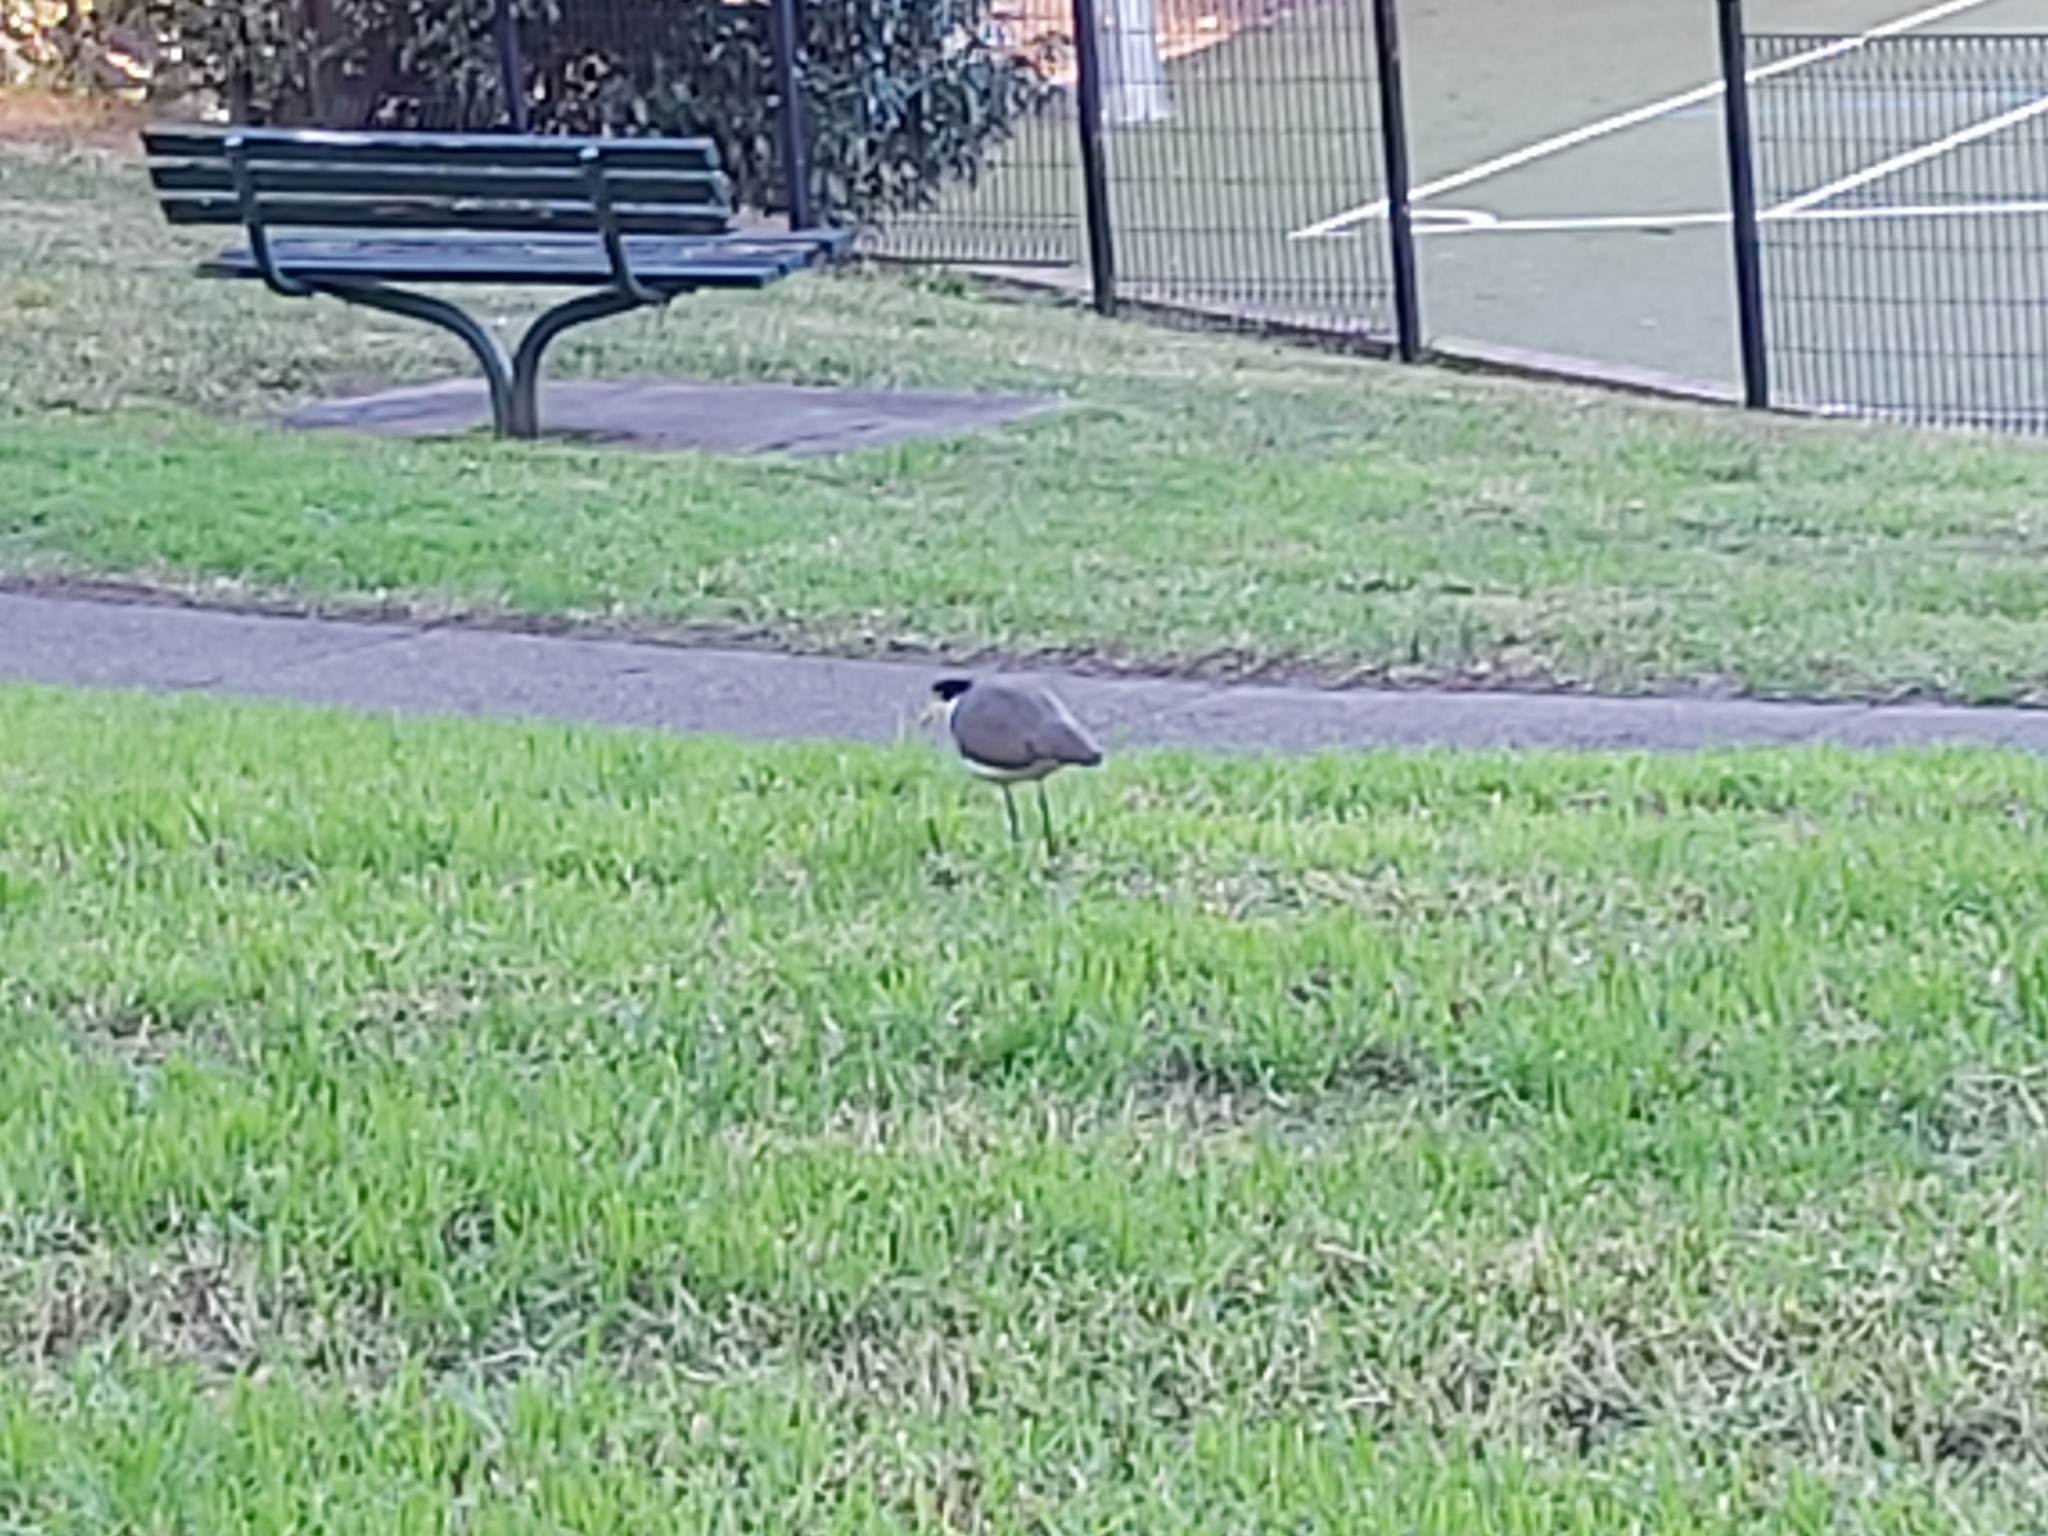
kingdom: Animalia
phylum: Chordata
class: Aves
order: Charadriiformes
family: Charadriidae
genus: Vanellus
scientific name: Vanellus miles
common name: Masked lapwing
